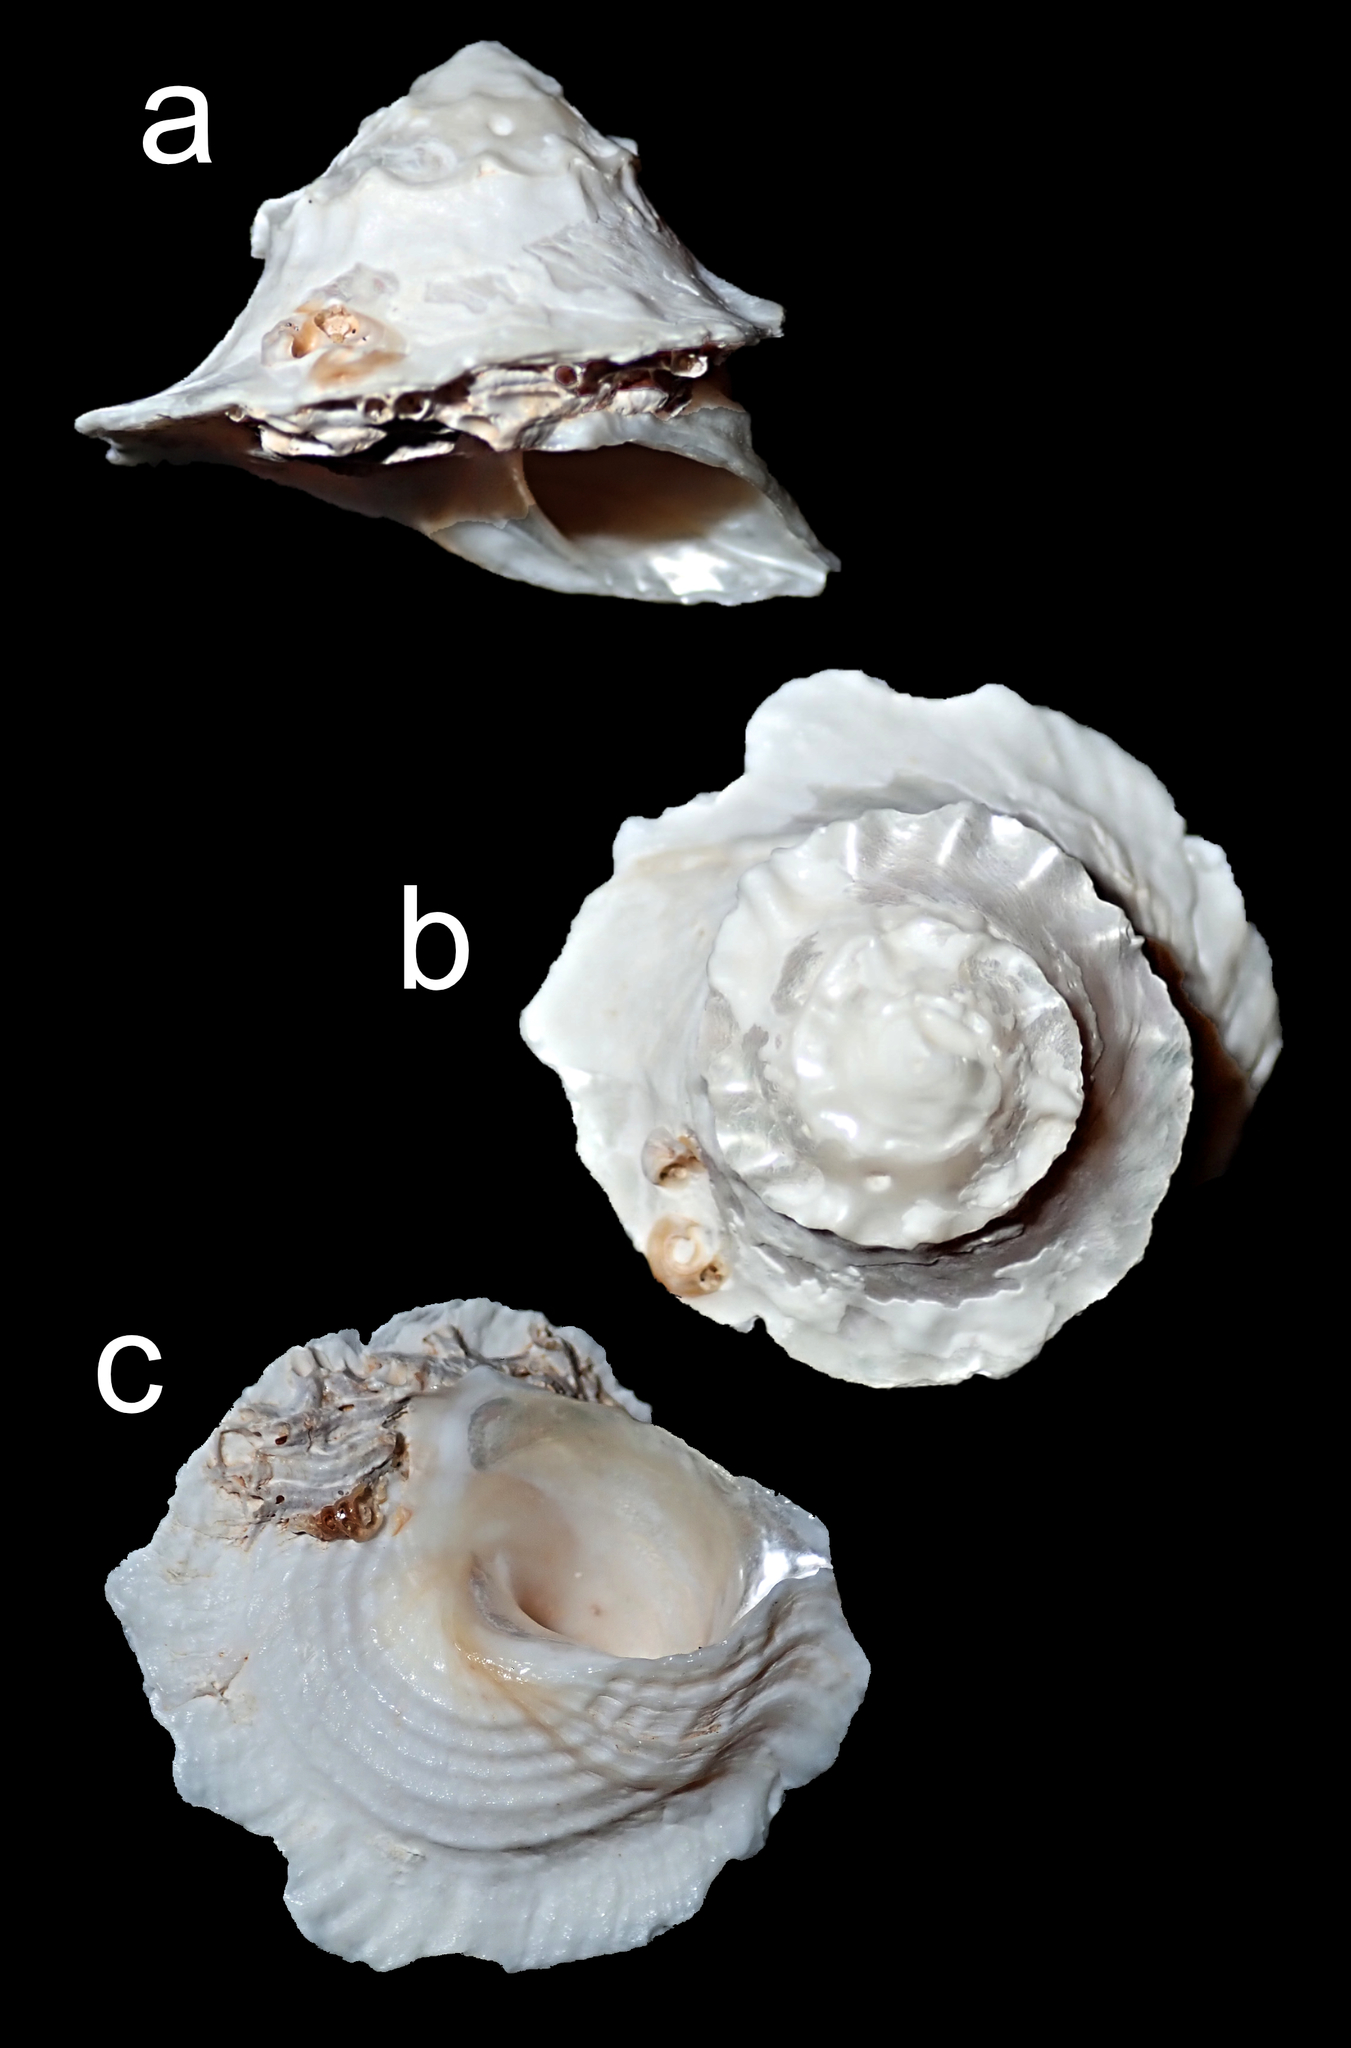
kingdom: Animalia
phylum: Mollusca
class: Gastropoda
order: Trochida
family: Turbinidae
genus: Bellastraea
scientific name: Bellastraea squamifera
